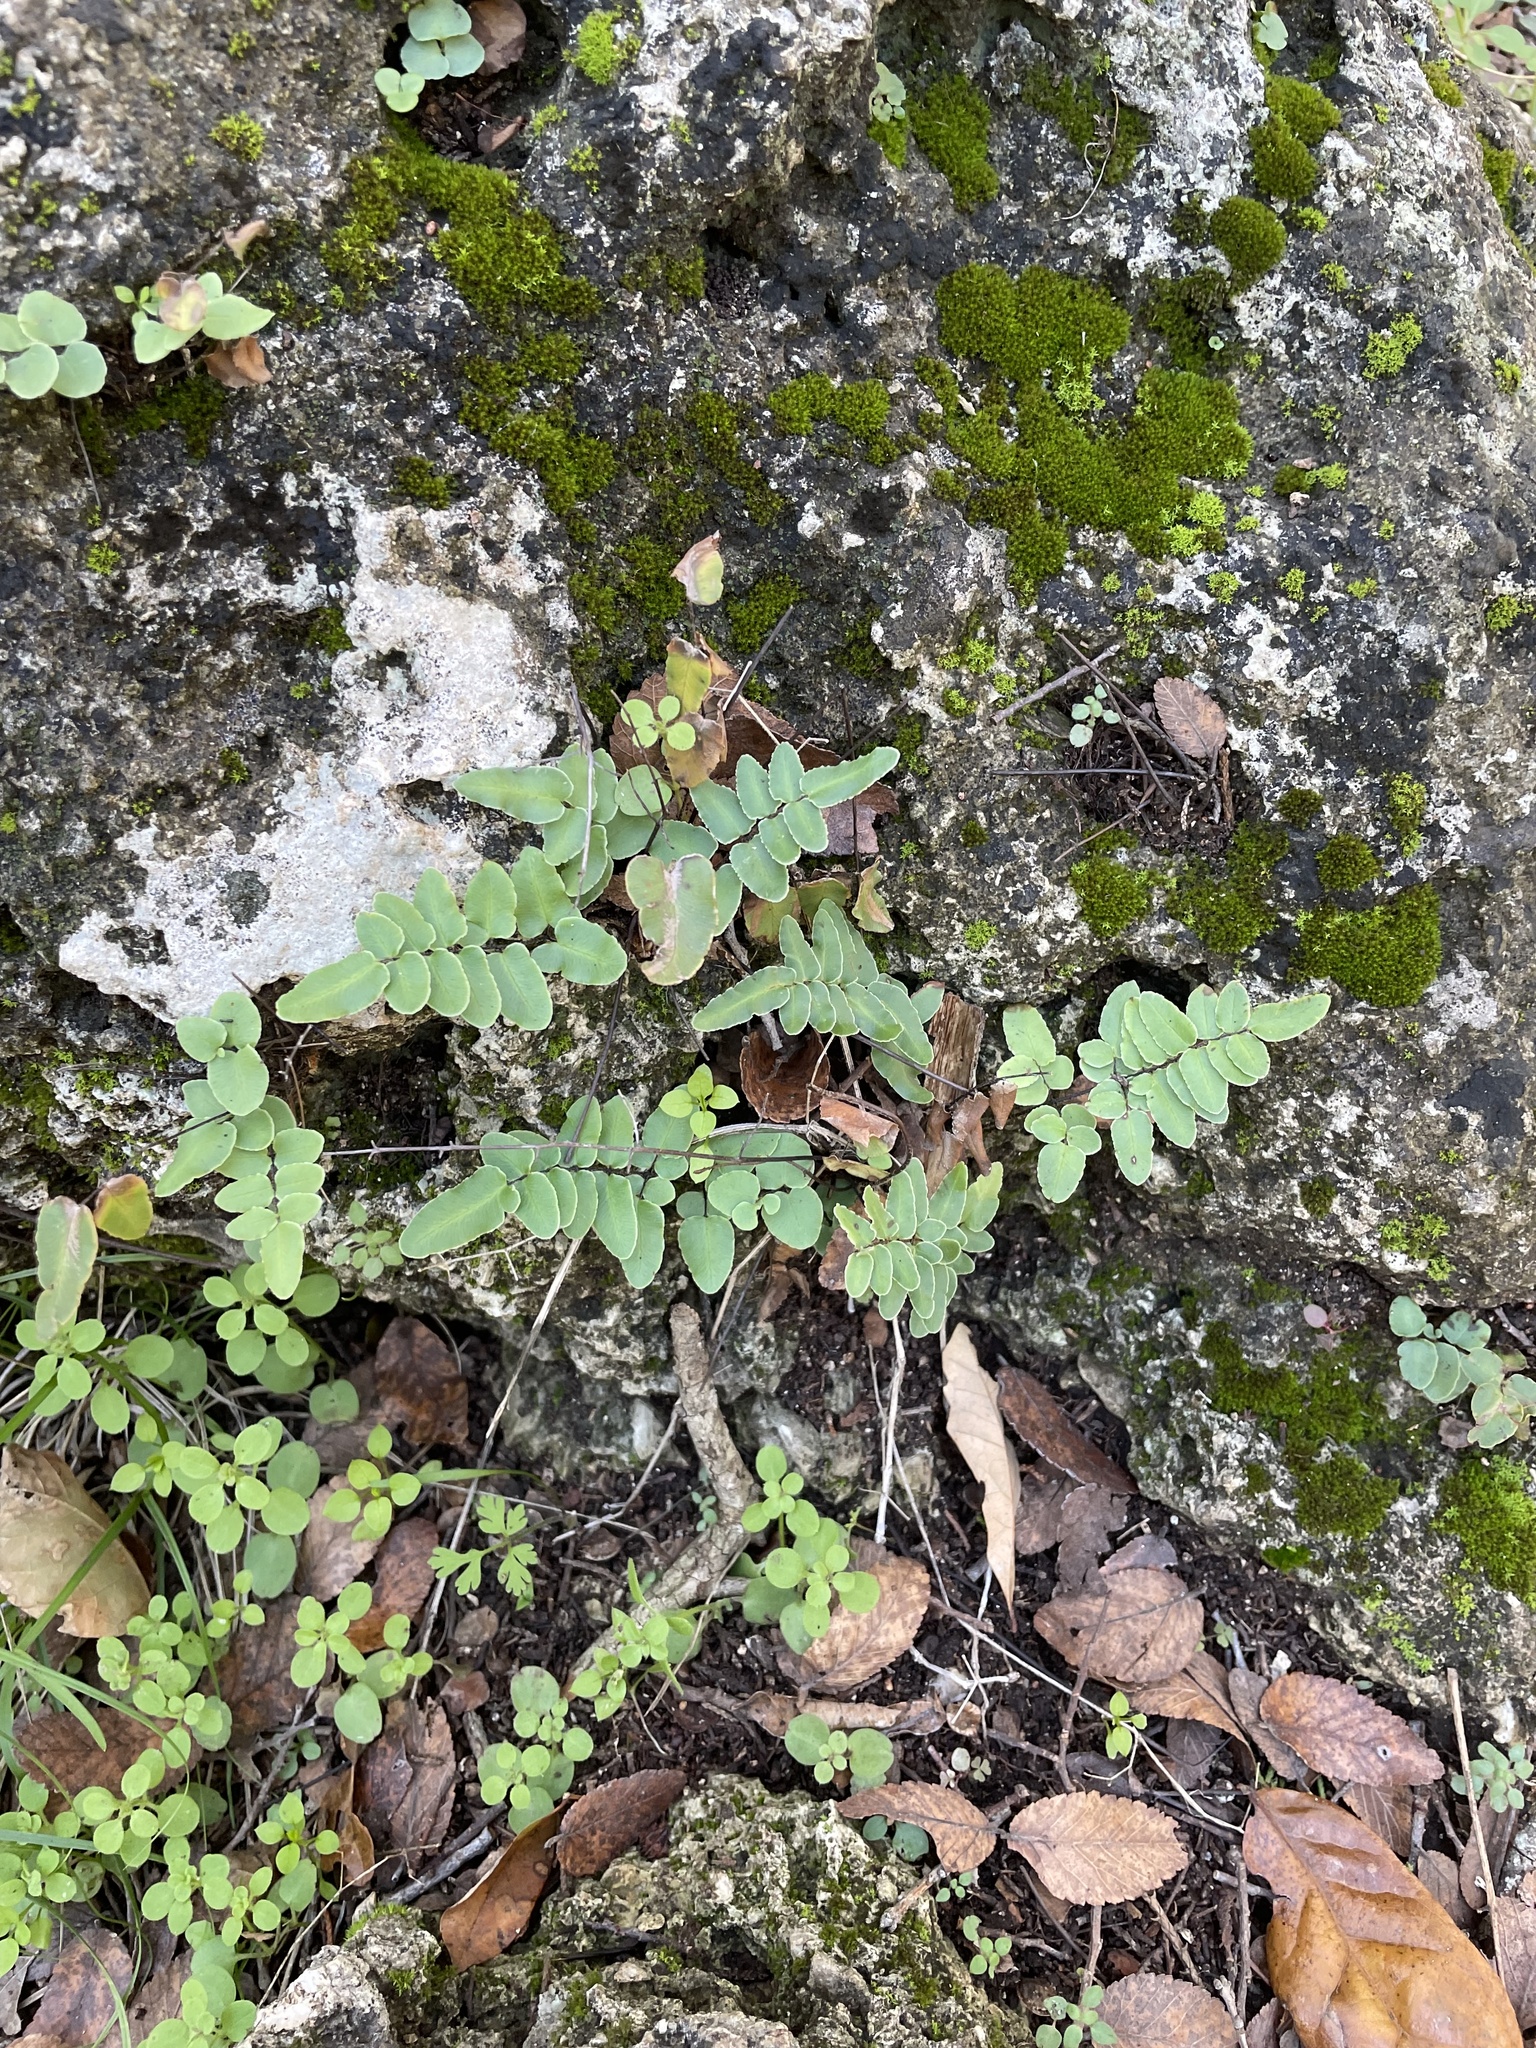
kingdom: Plantae
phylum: Tracheophyta
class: Polypodiopsida
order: Polypodiales
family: Pteridaceae
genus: Pellaea
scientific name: Pellaea atropurpurea
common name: Hairy cliffbrake
